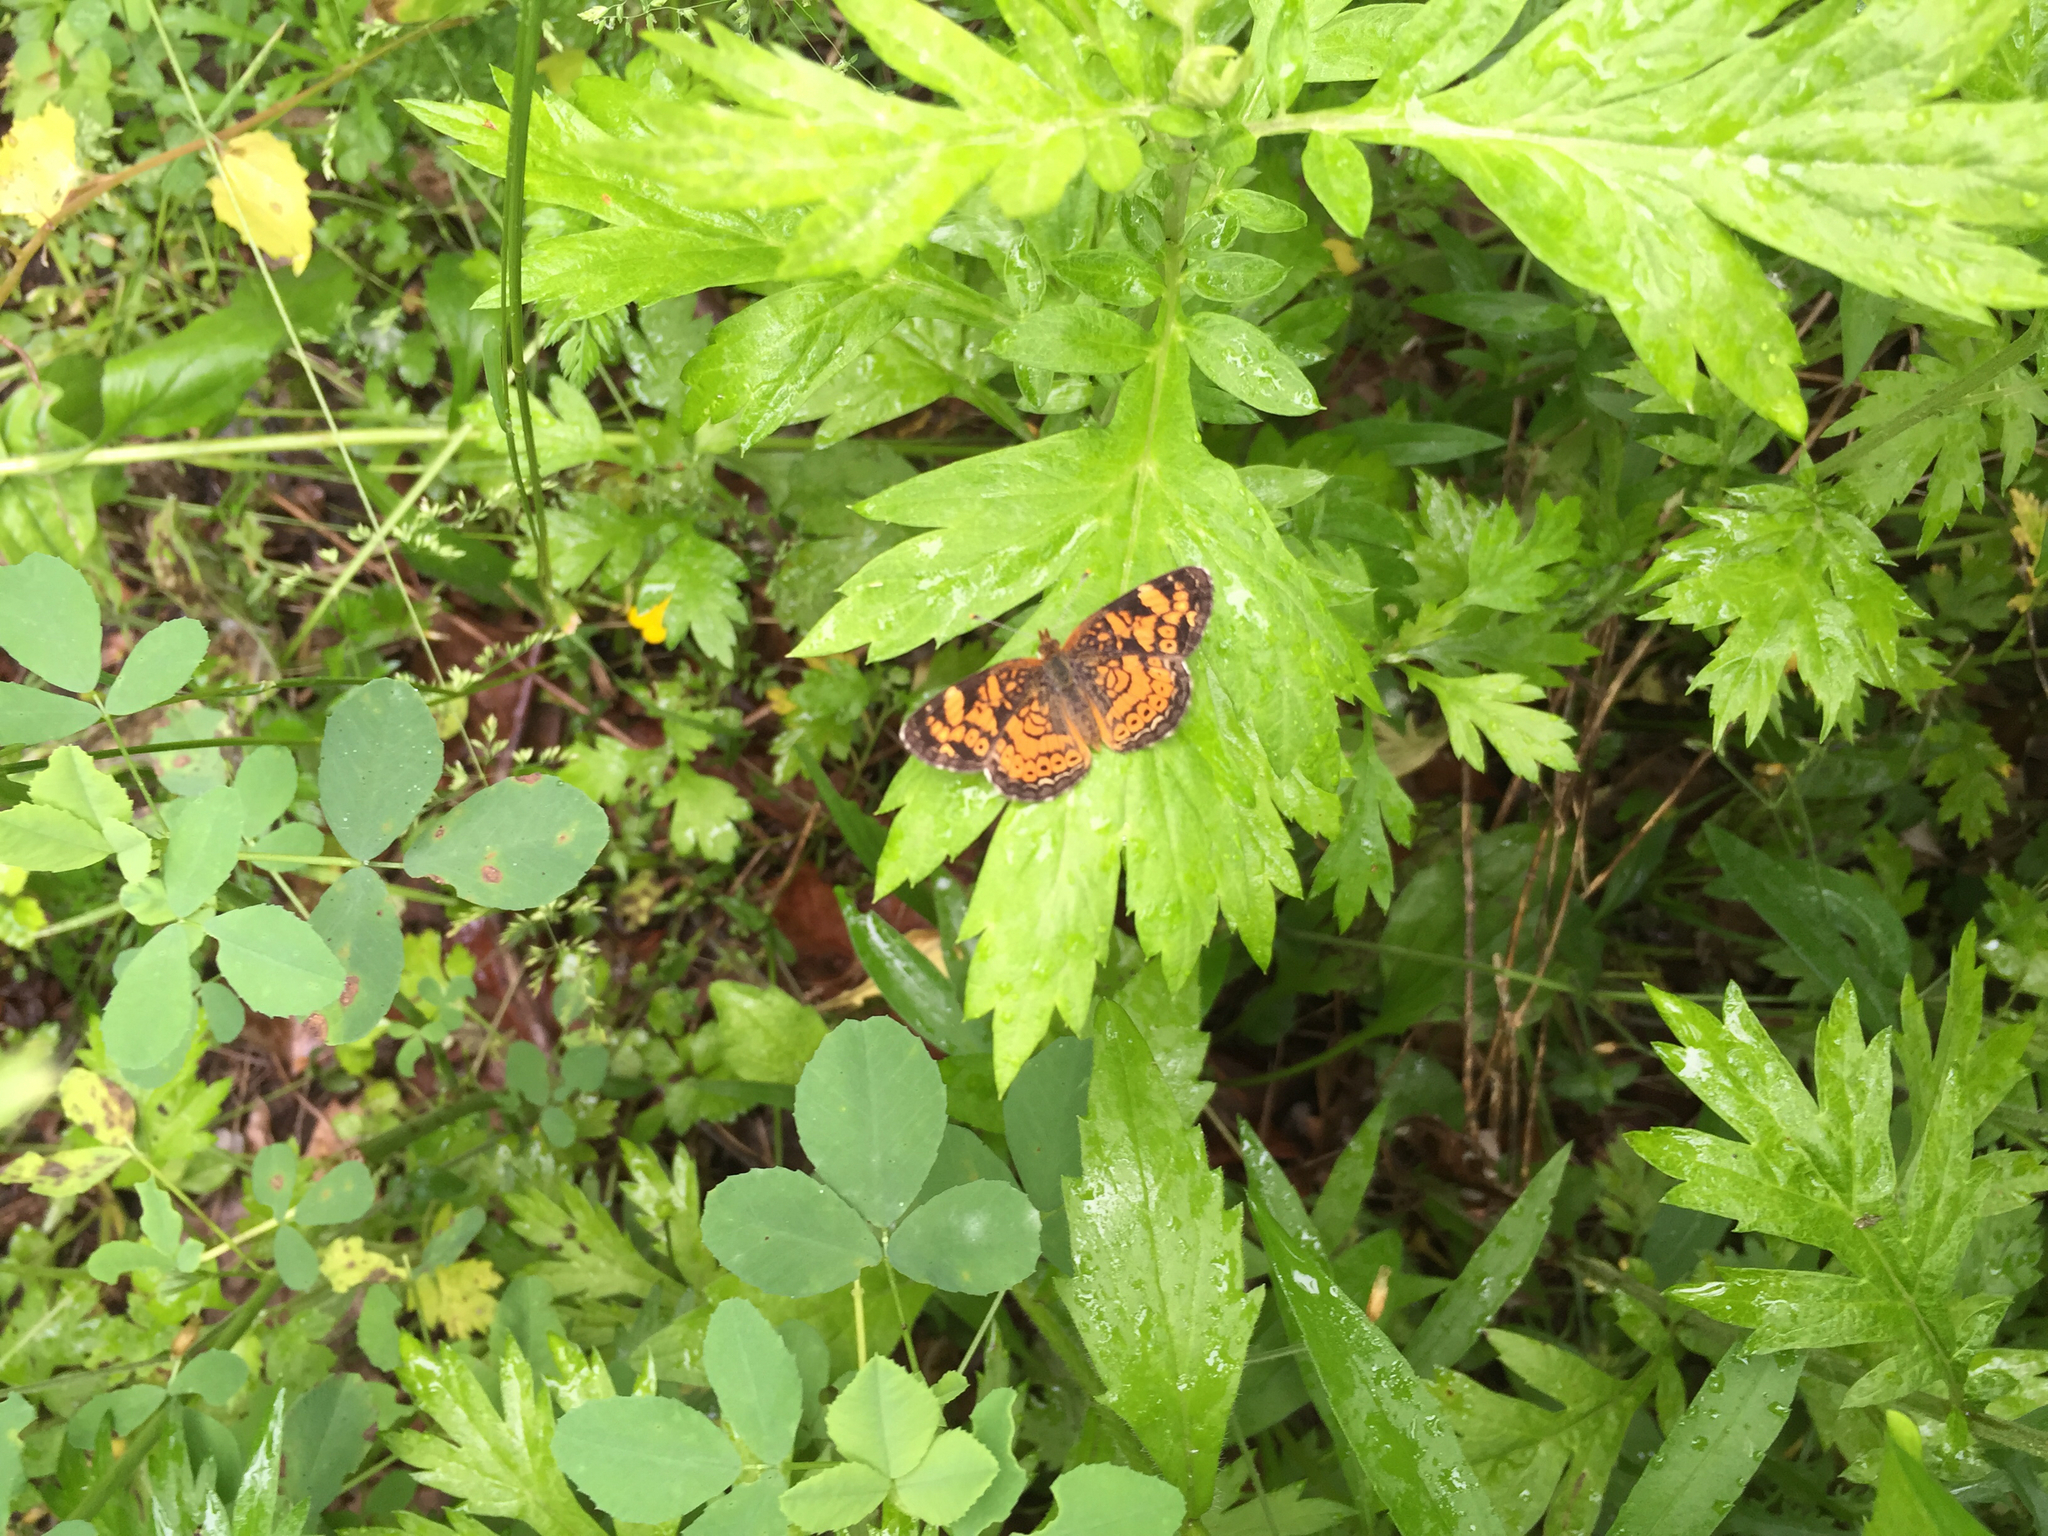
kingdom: Animalia
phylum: Arthropoda
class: Insecta
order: Lepidoptera
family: Nymphalidae
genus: Phyciodes
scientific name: Phyciodes tharos
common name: Pearl crescent
